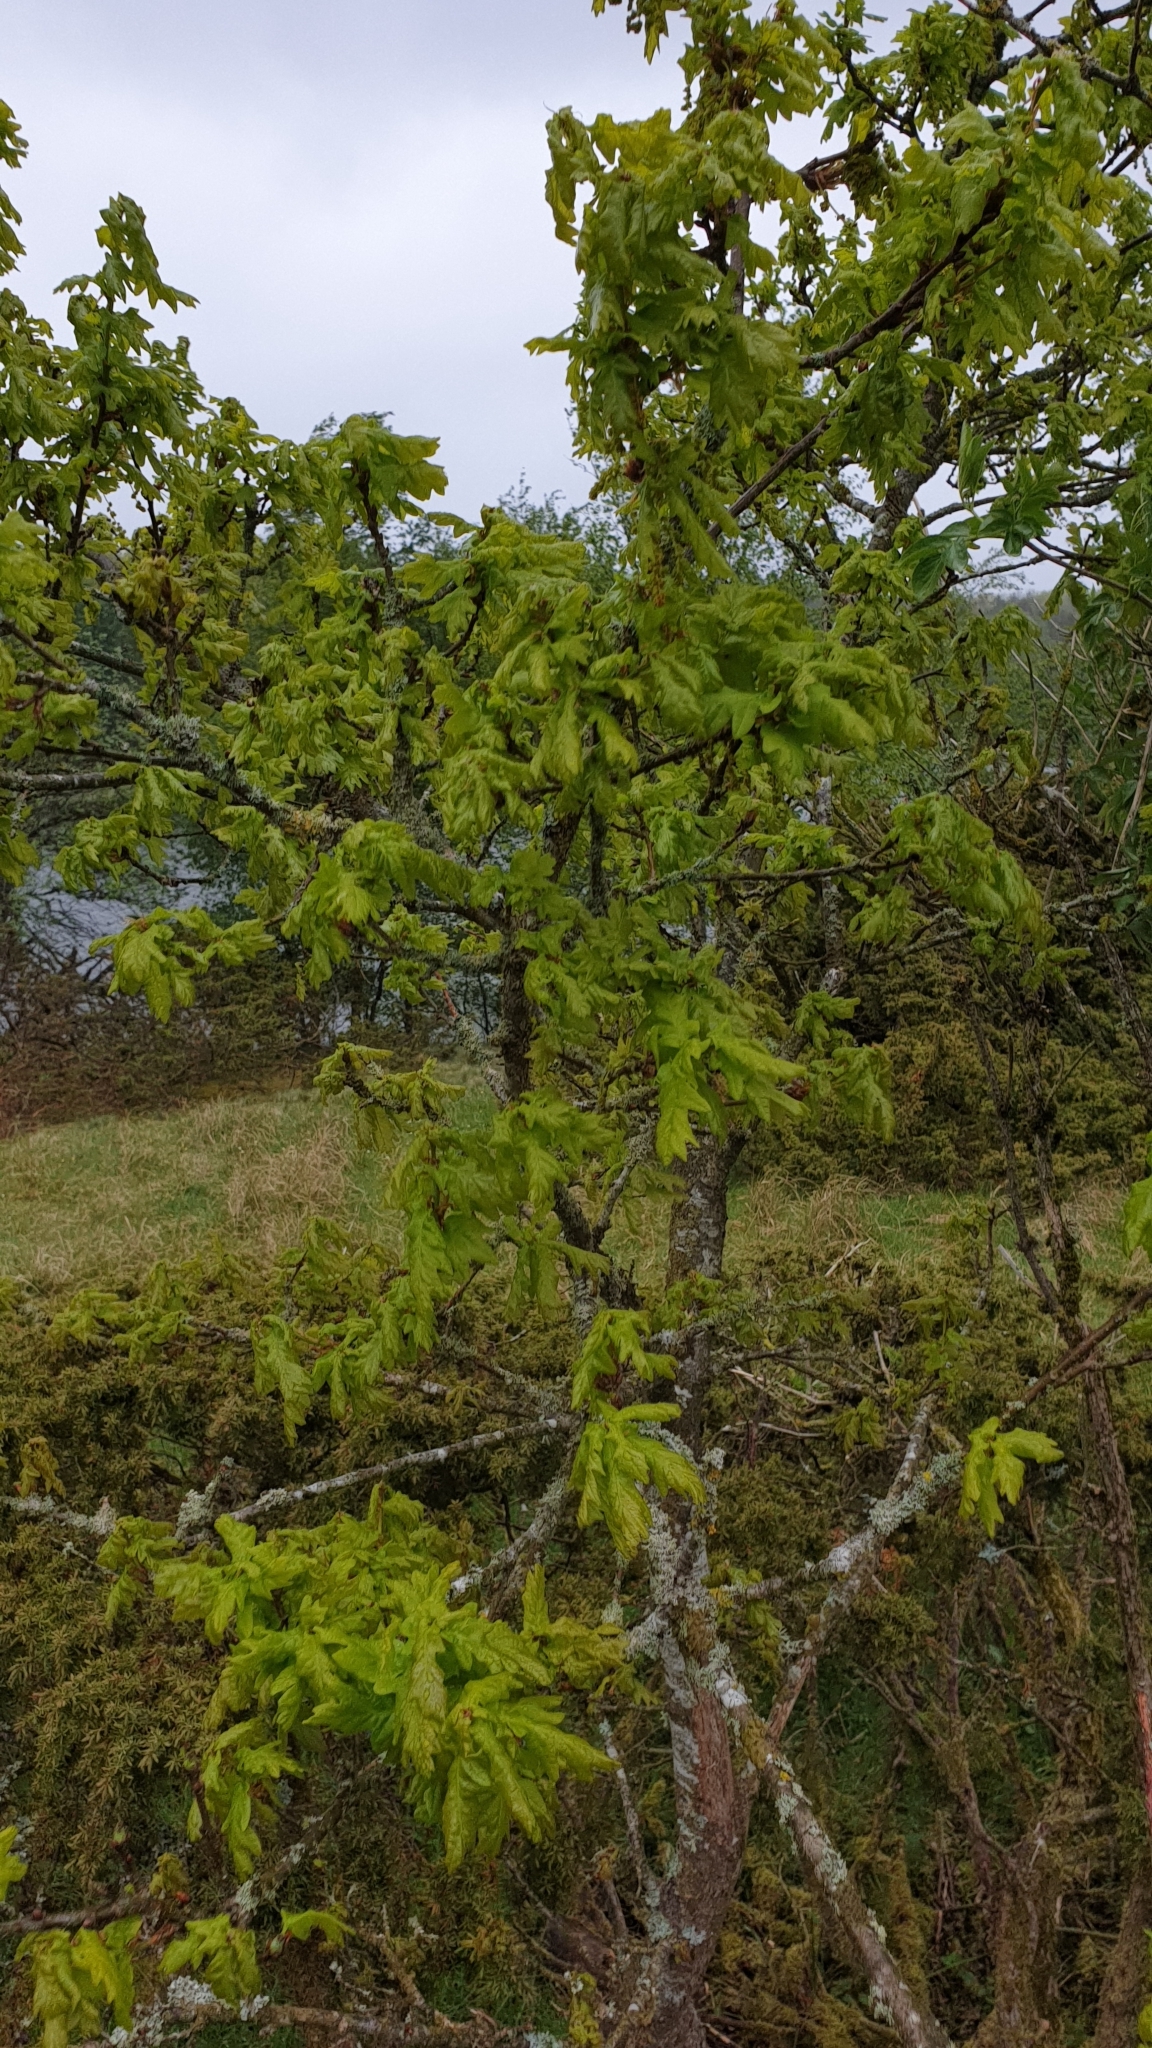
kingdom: Plantae
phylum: Tracheophyta
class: Magnoliopsida
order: Fagales
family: Fagaceae
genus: Quercus
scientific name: Quercus robur
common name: Pedunculate oak
